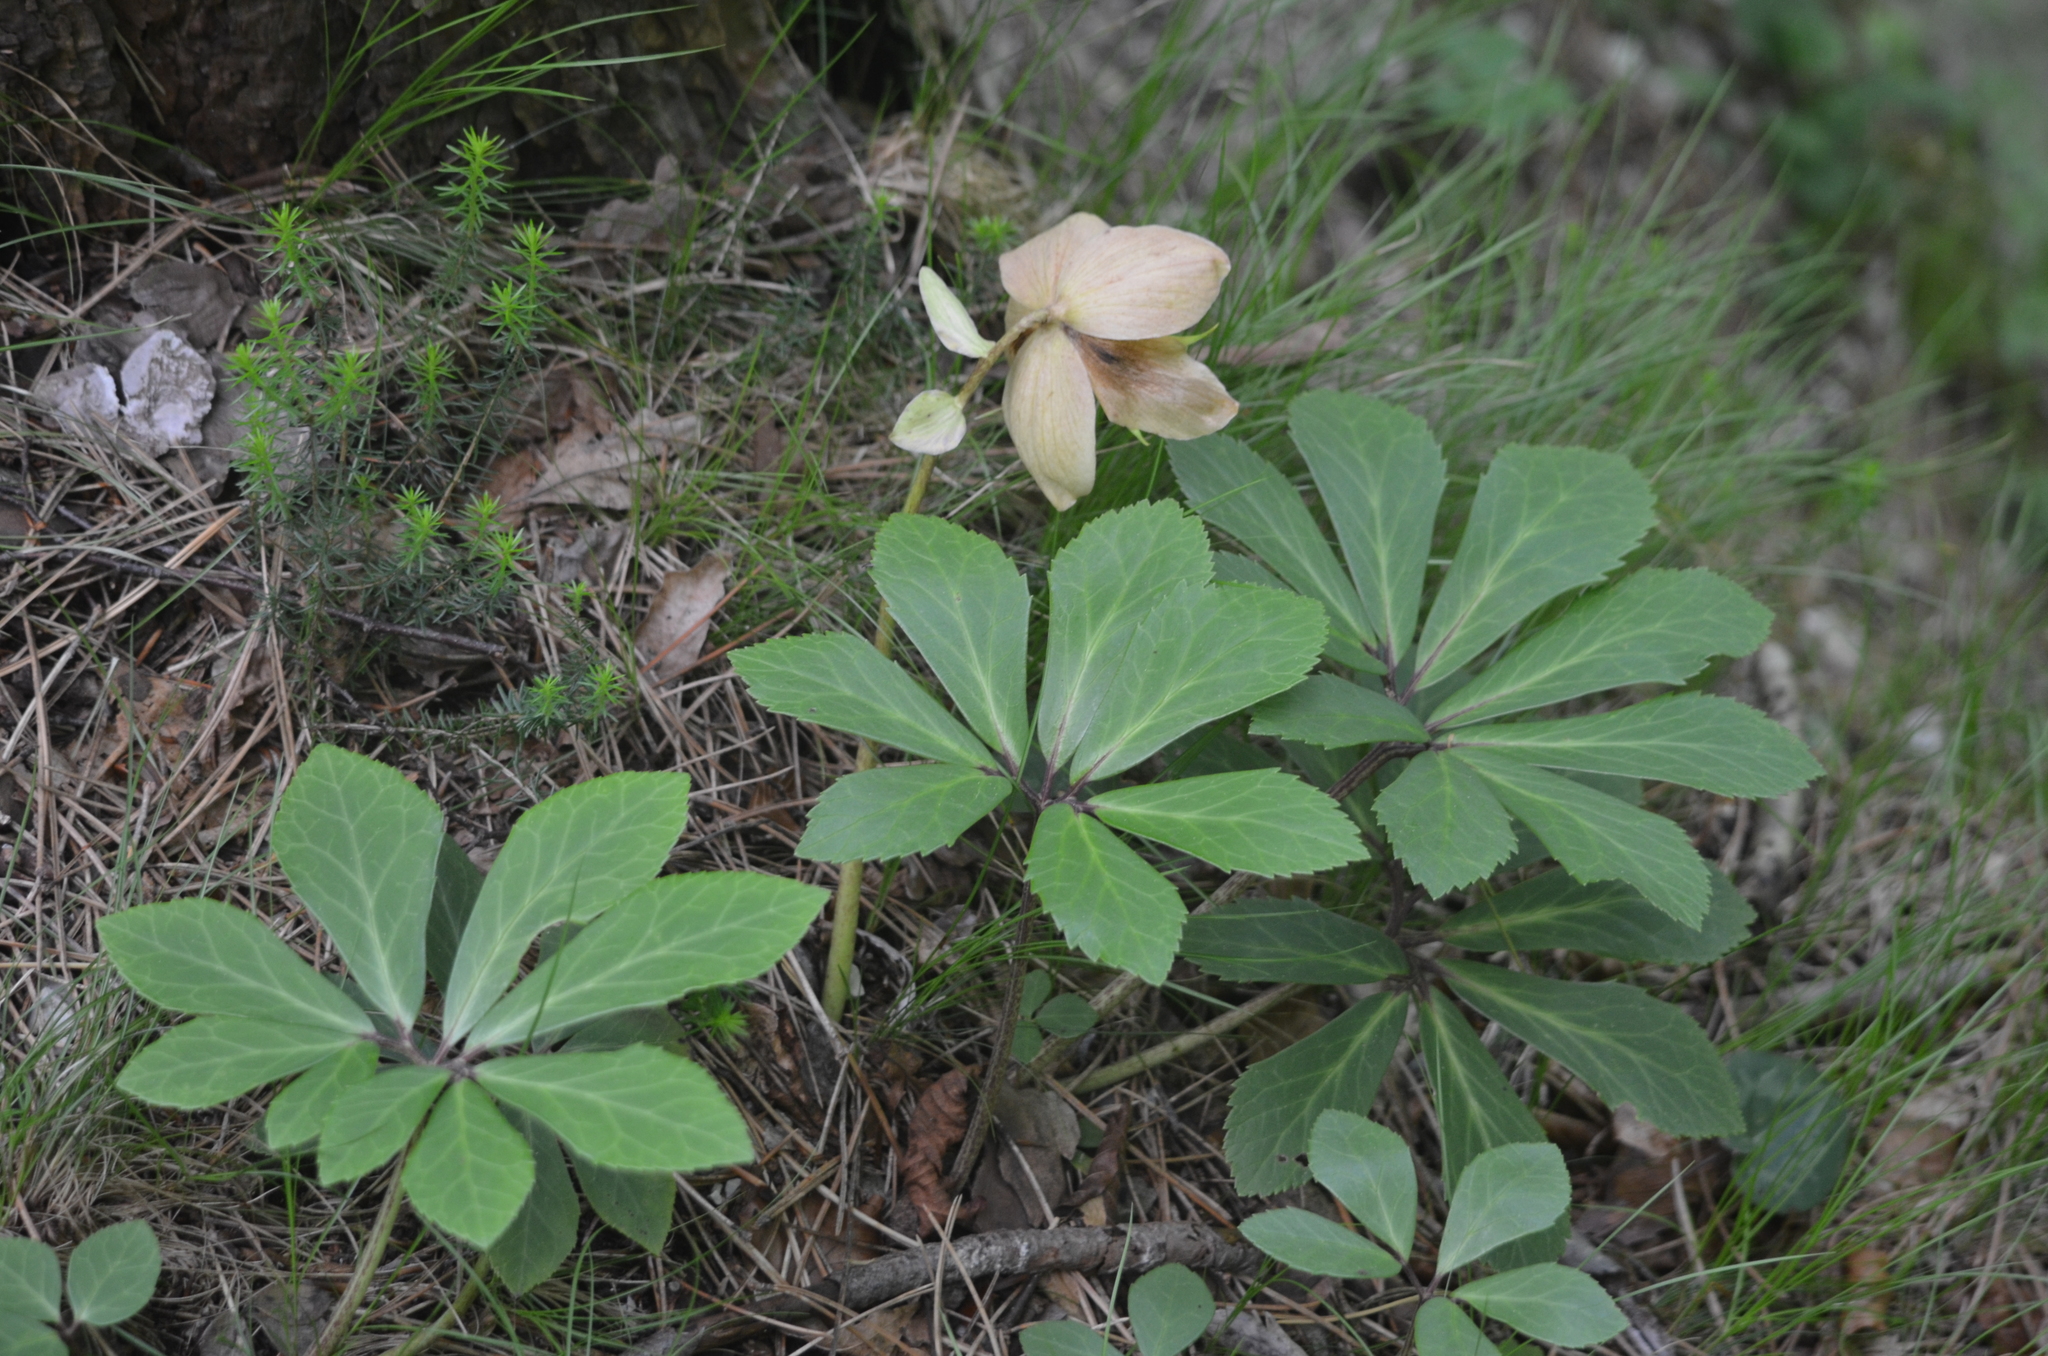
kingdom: Plantae
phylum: Tracheophyta
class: Magnoliopsida
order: Ranunculales
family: Ranunculaceae
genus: Helleborus
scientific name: Helleborus niger
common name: Black hellebore
